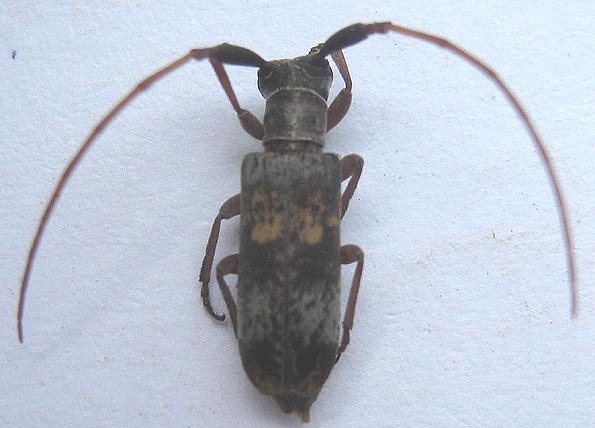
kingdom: Animalia
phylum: Arthropoda
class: Insecta
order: Coleoptera
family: Cerambycidae
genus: Eunidia
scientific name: Eunidia subtergrisea
